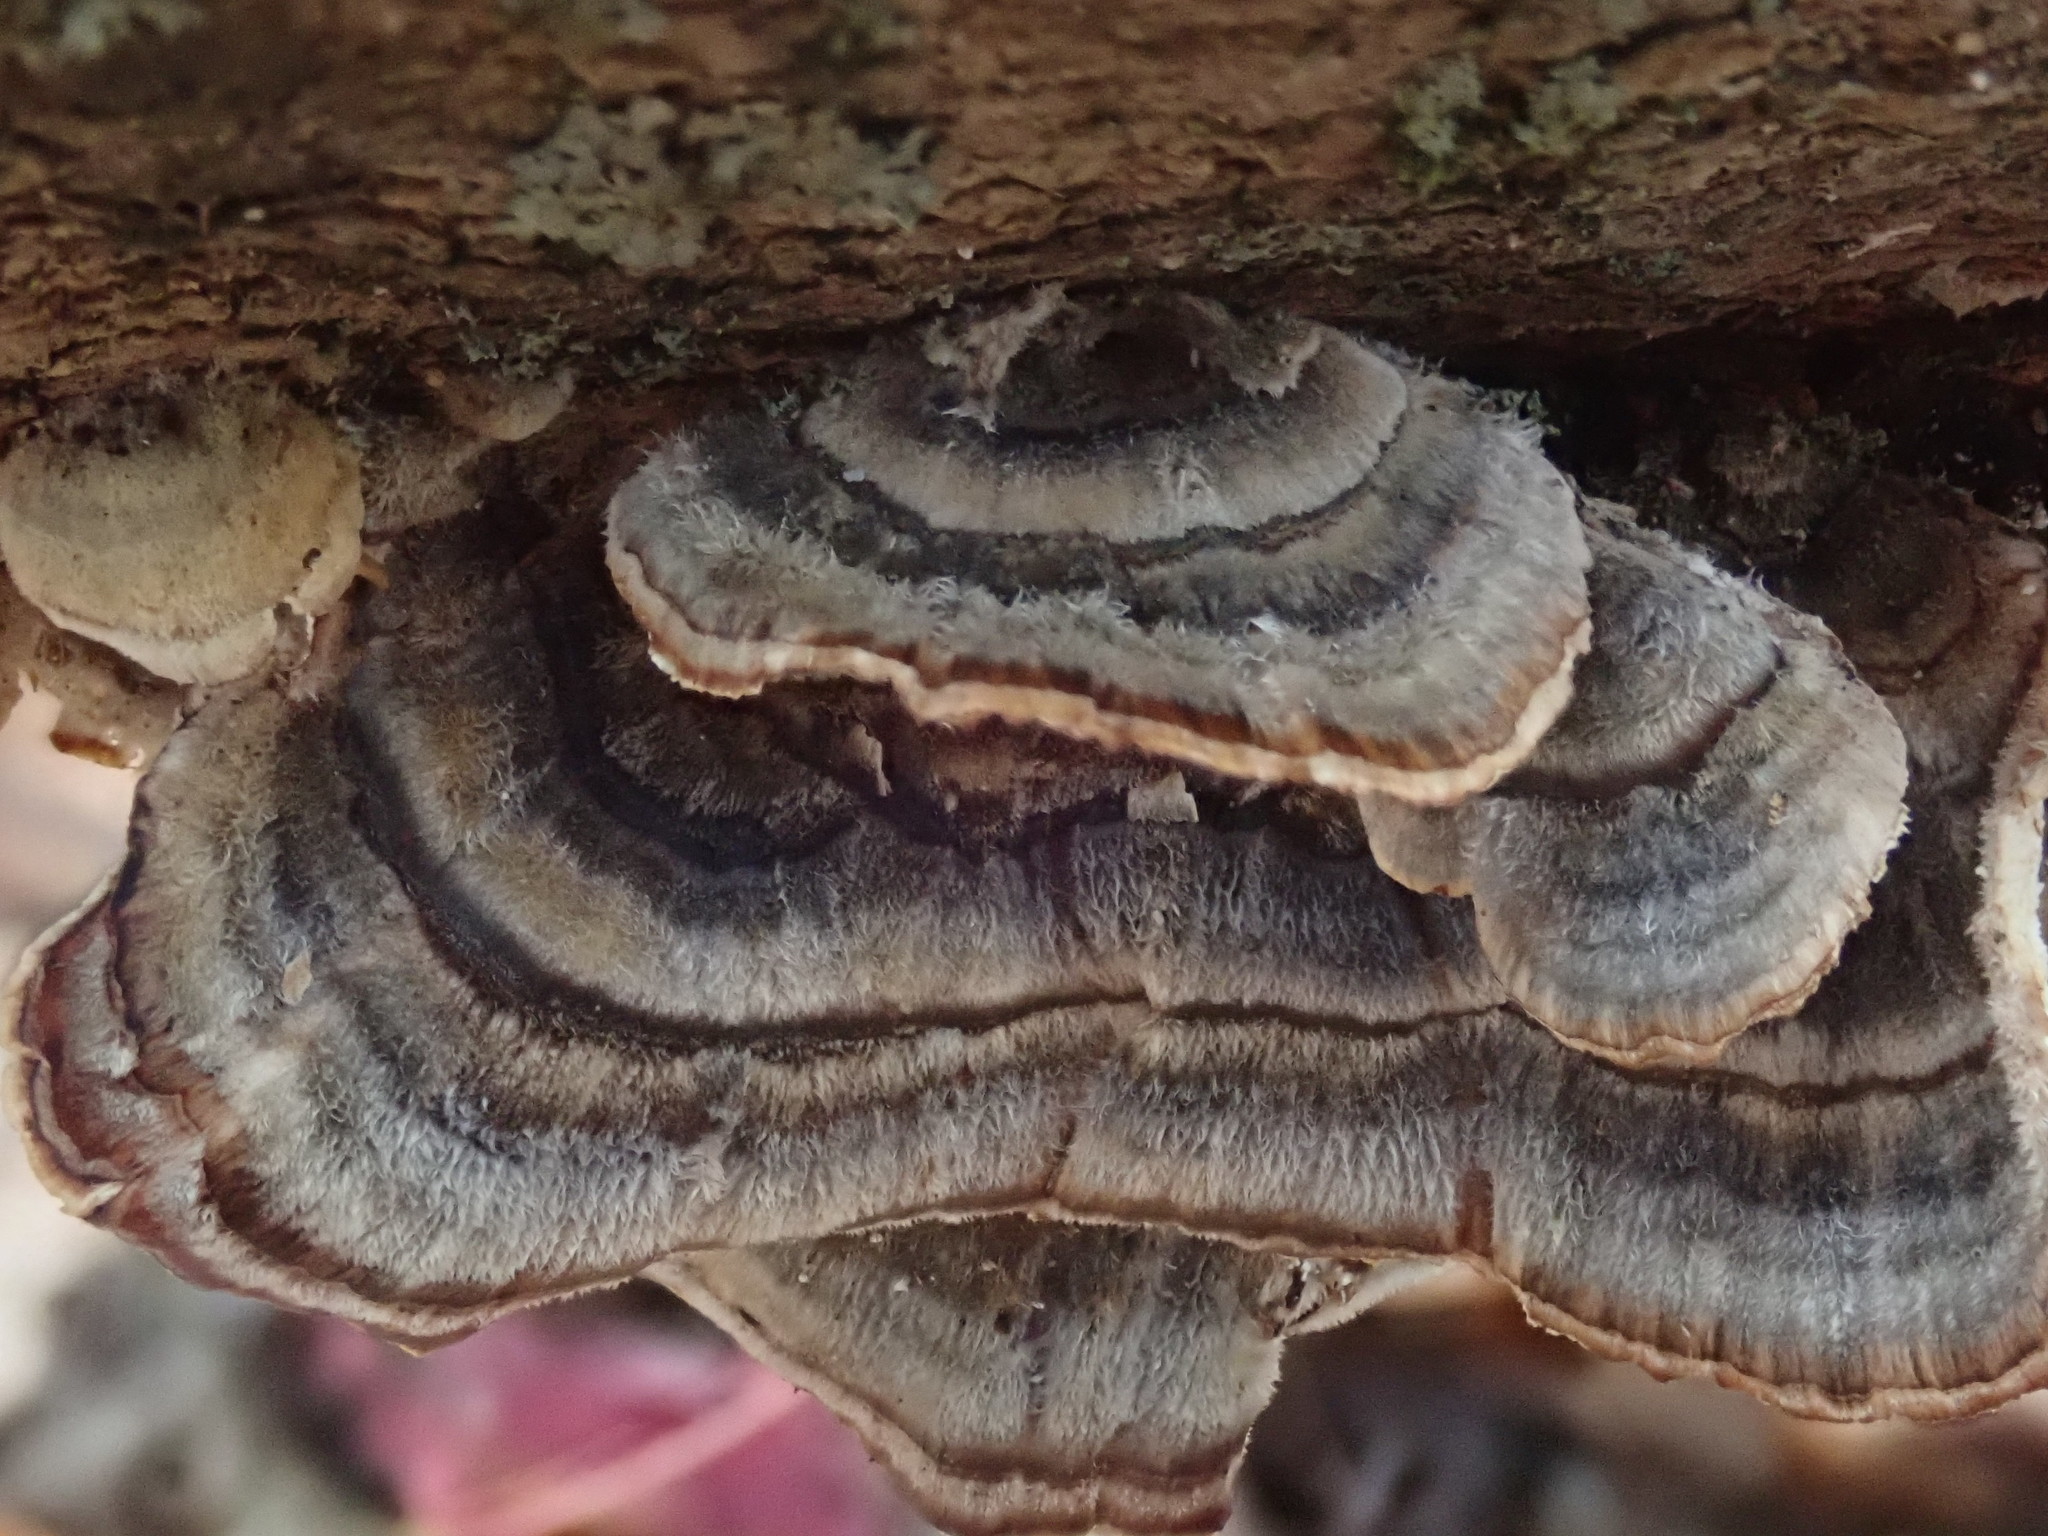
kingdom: Fungi
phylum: Basidiomycota
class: Agaricomycetes
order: Polyporales
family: Polyporaceae
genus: Trametes
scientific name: Trametes versicolor
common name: Turkeytail
